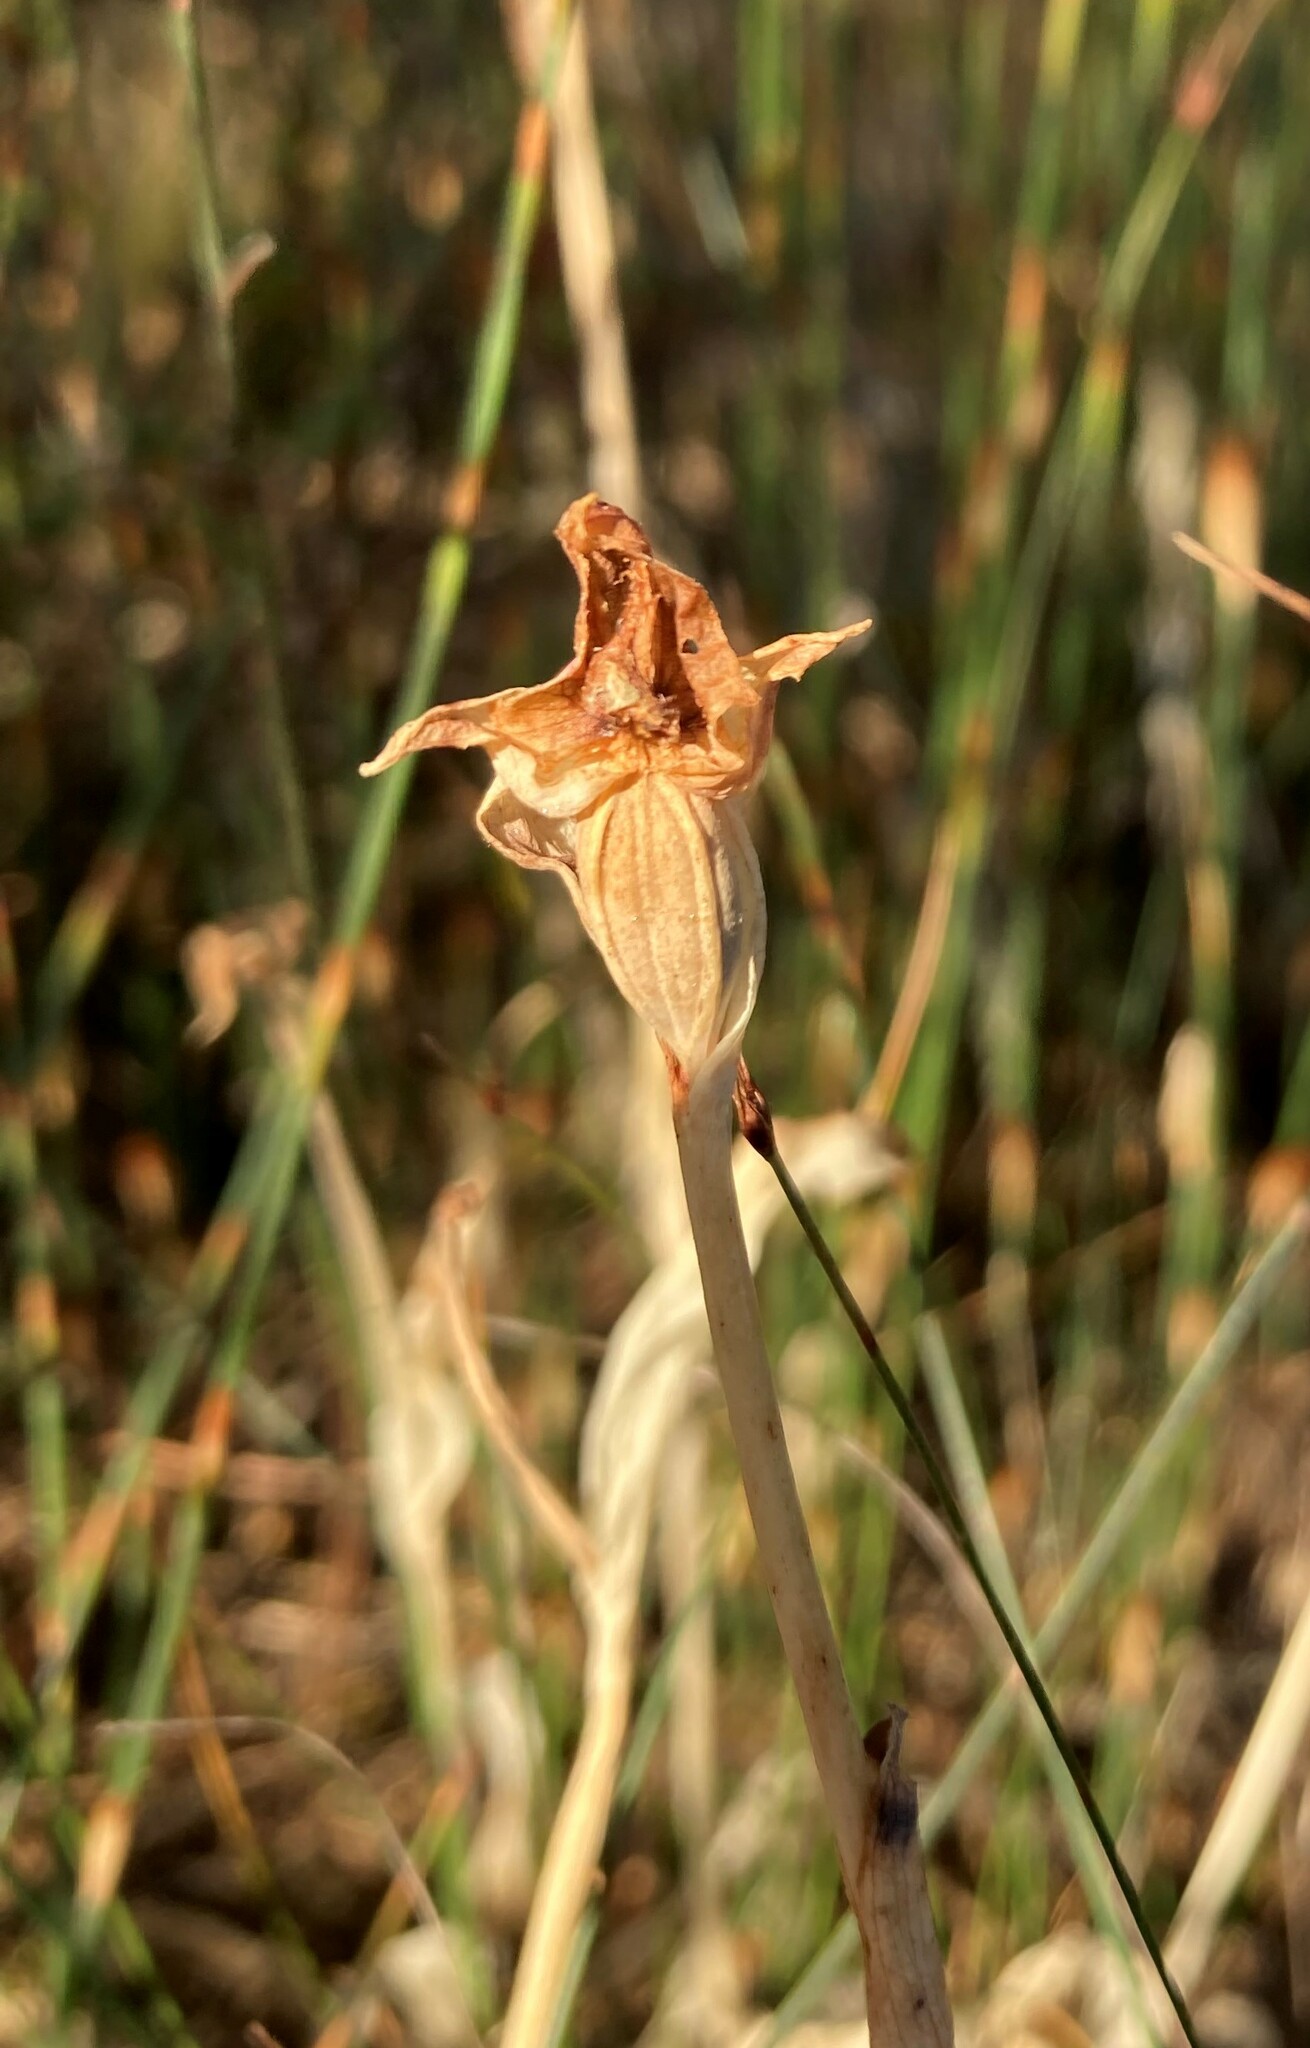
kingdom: Plantae
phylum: Tracheophyta
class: Liliopsida
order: Asparagales
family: Orchidaceae
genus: Disperis
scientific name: Disperis cucullata
